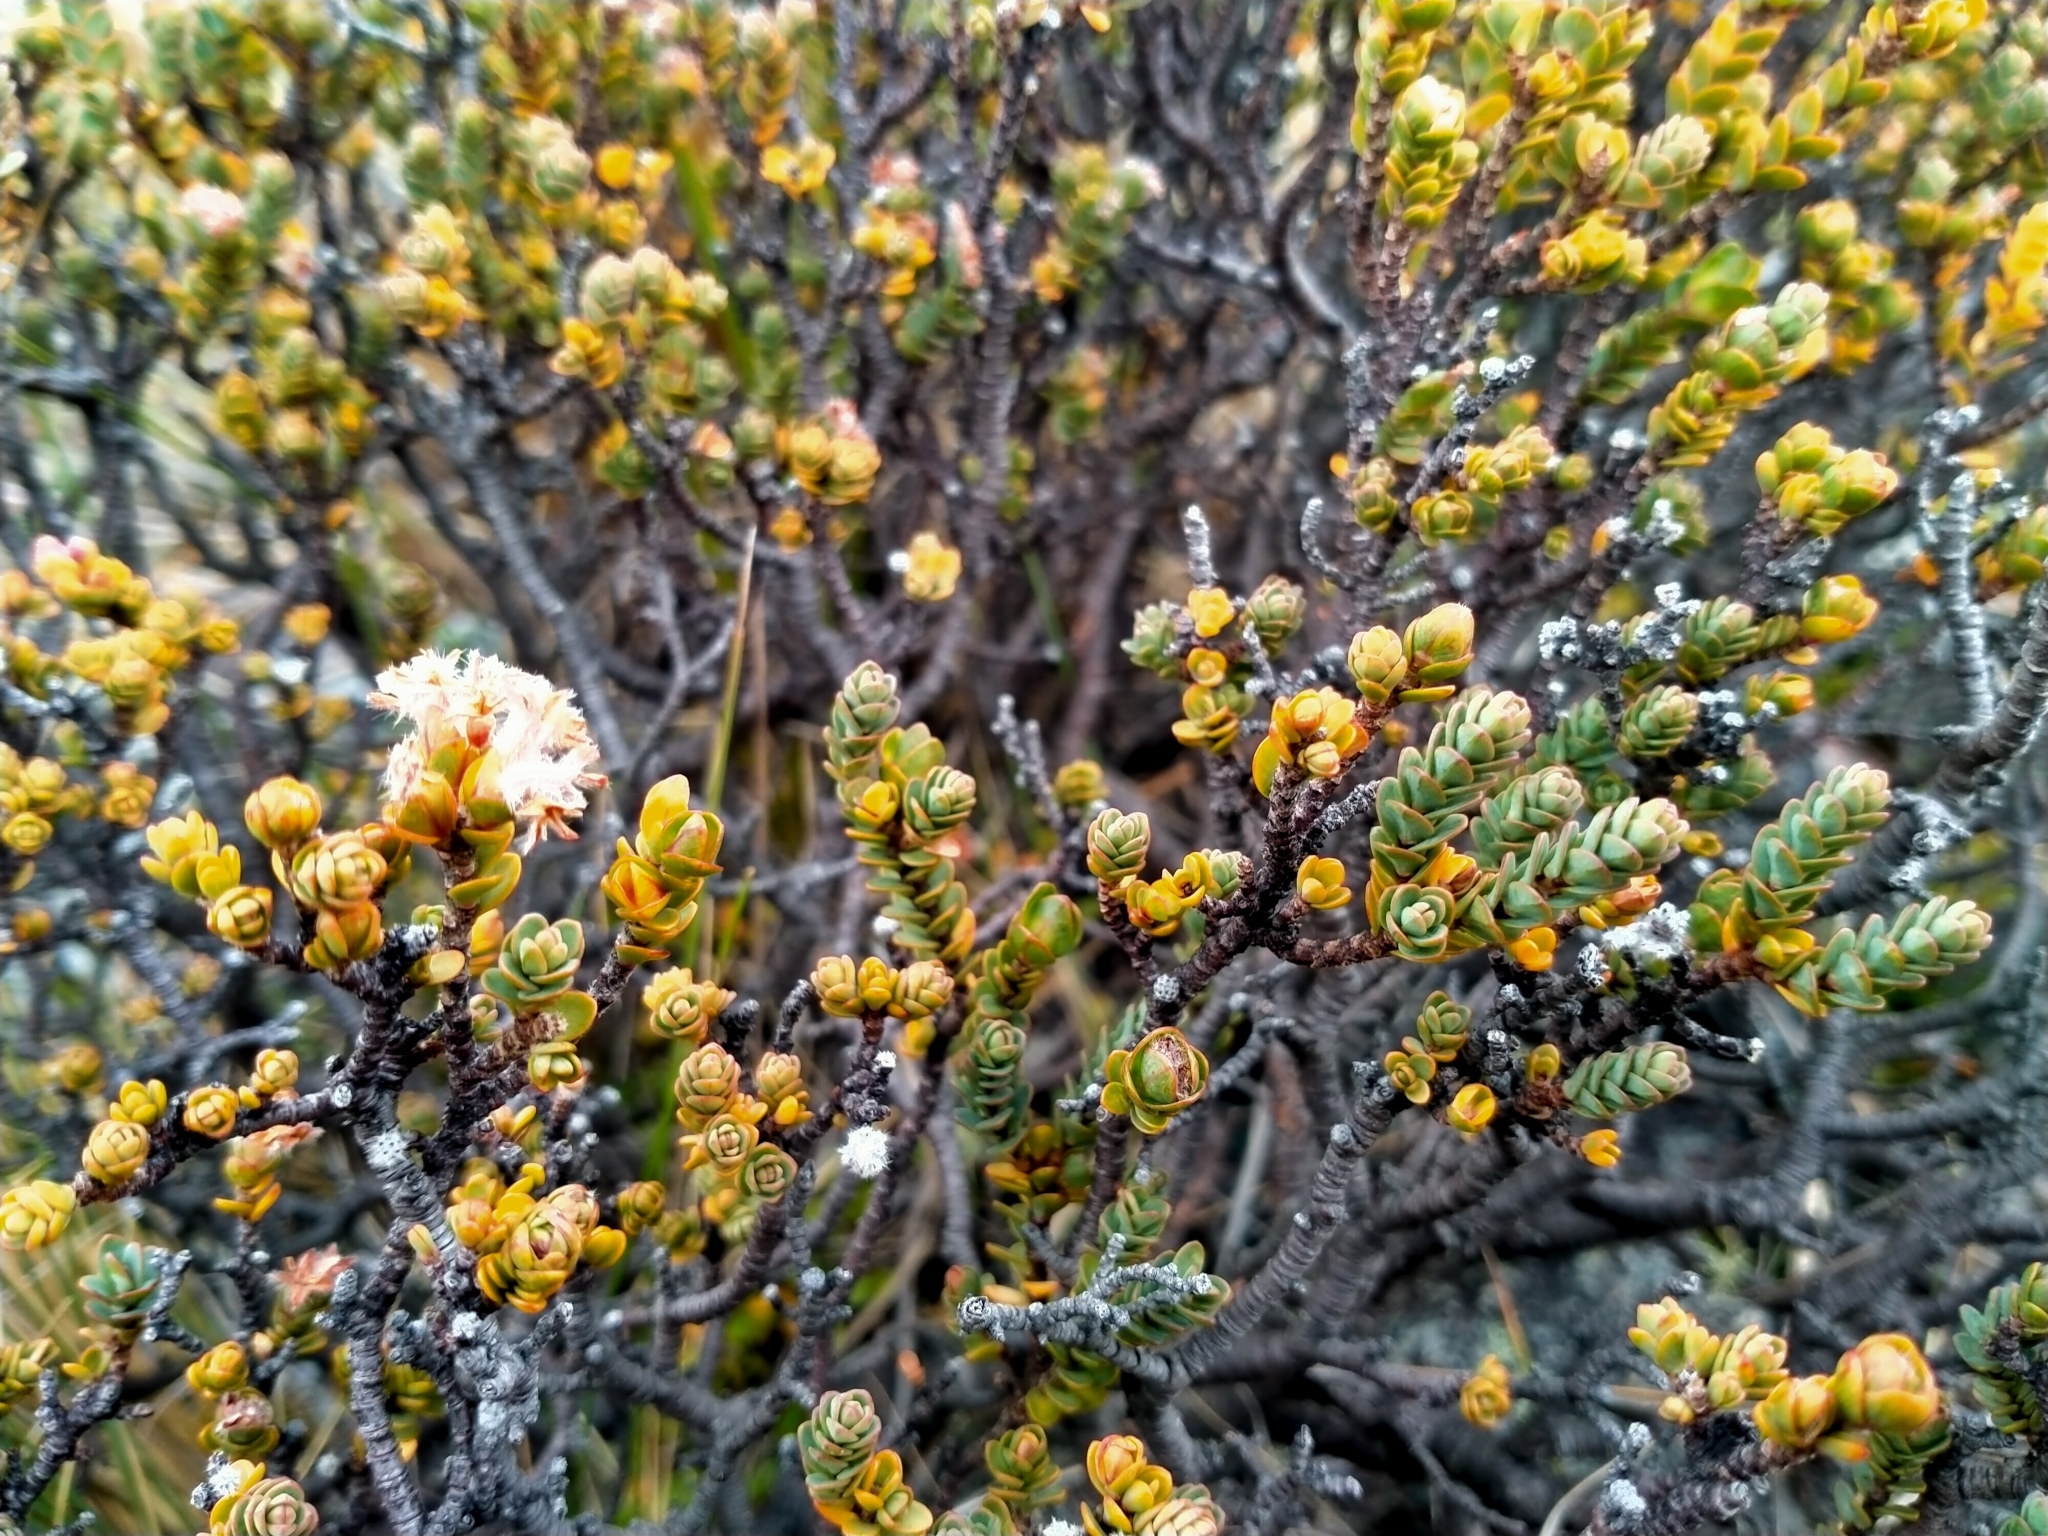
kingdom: Plantae
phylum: Tracheophyta
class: Magnoliopsida
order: Malvales
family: Thymelaeaceae
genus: Pimelea
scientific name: Pimelea traversii
